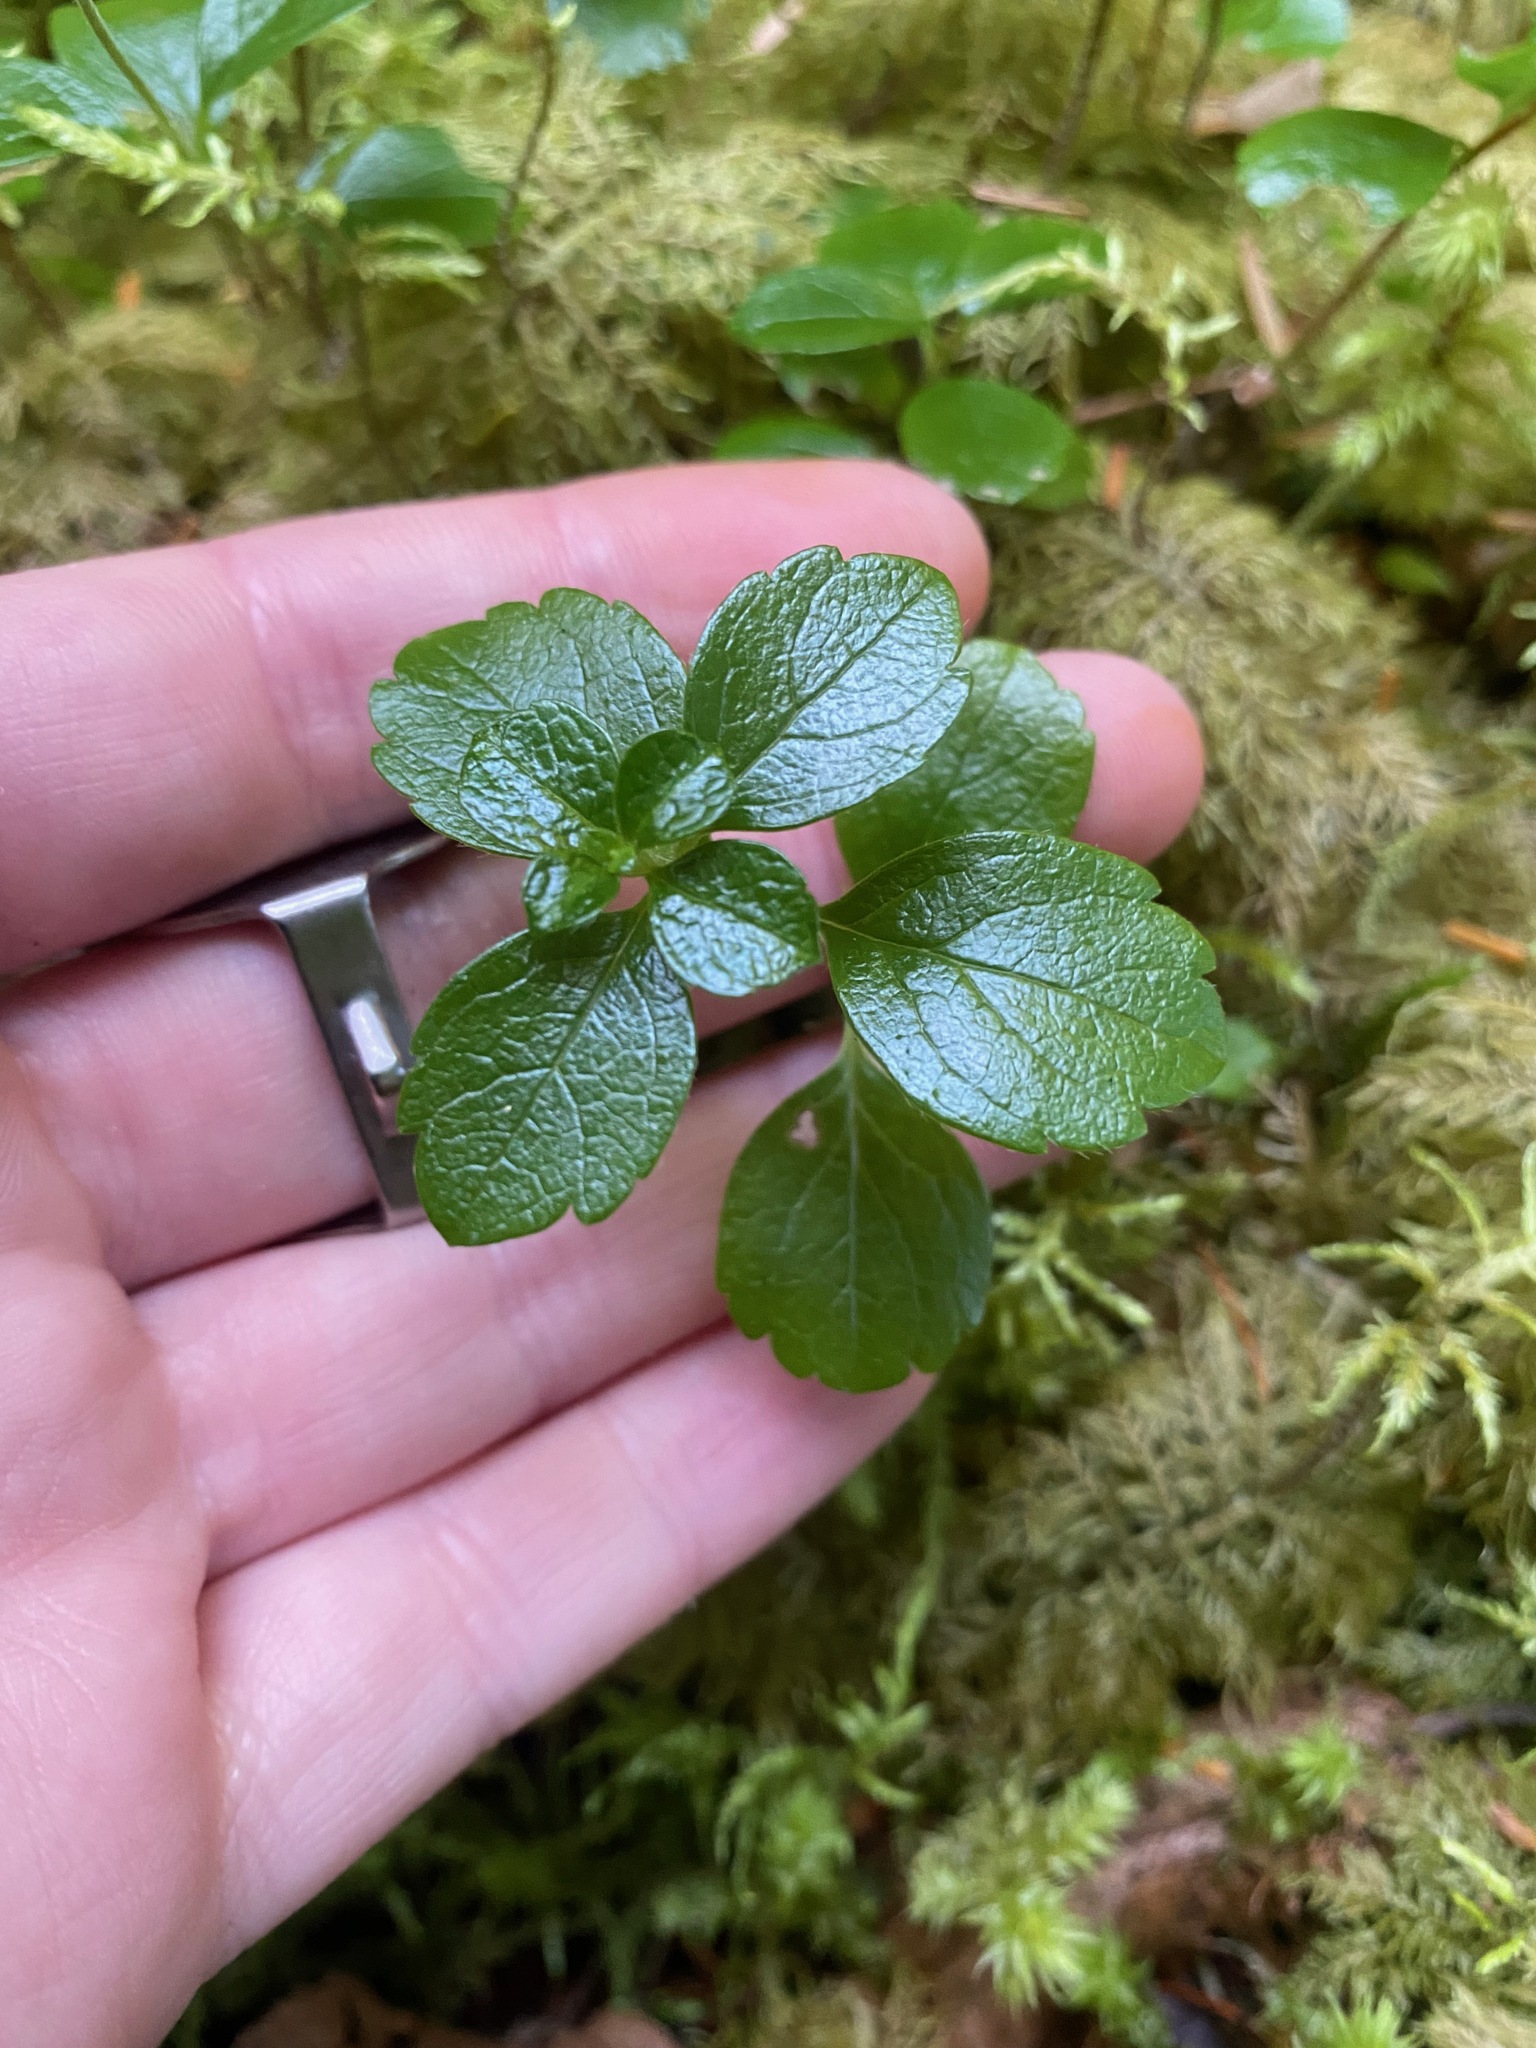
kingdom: Plantae
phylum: Tracheophyta
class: Magnoliopsida
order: Dipsacales
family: Caprifoliaceae
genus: Linnaea
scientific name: Linnaea borealis
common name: Twinflower
